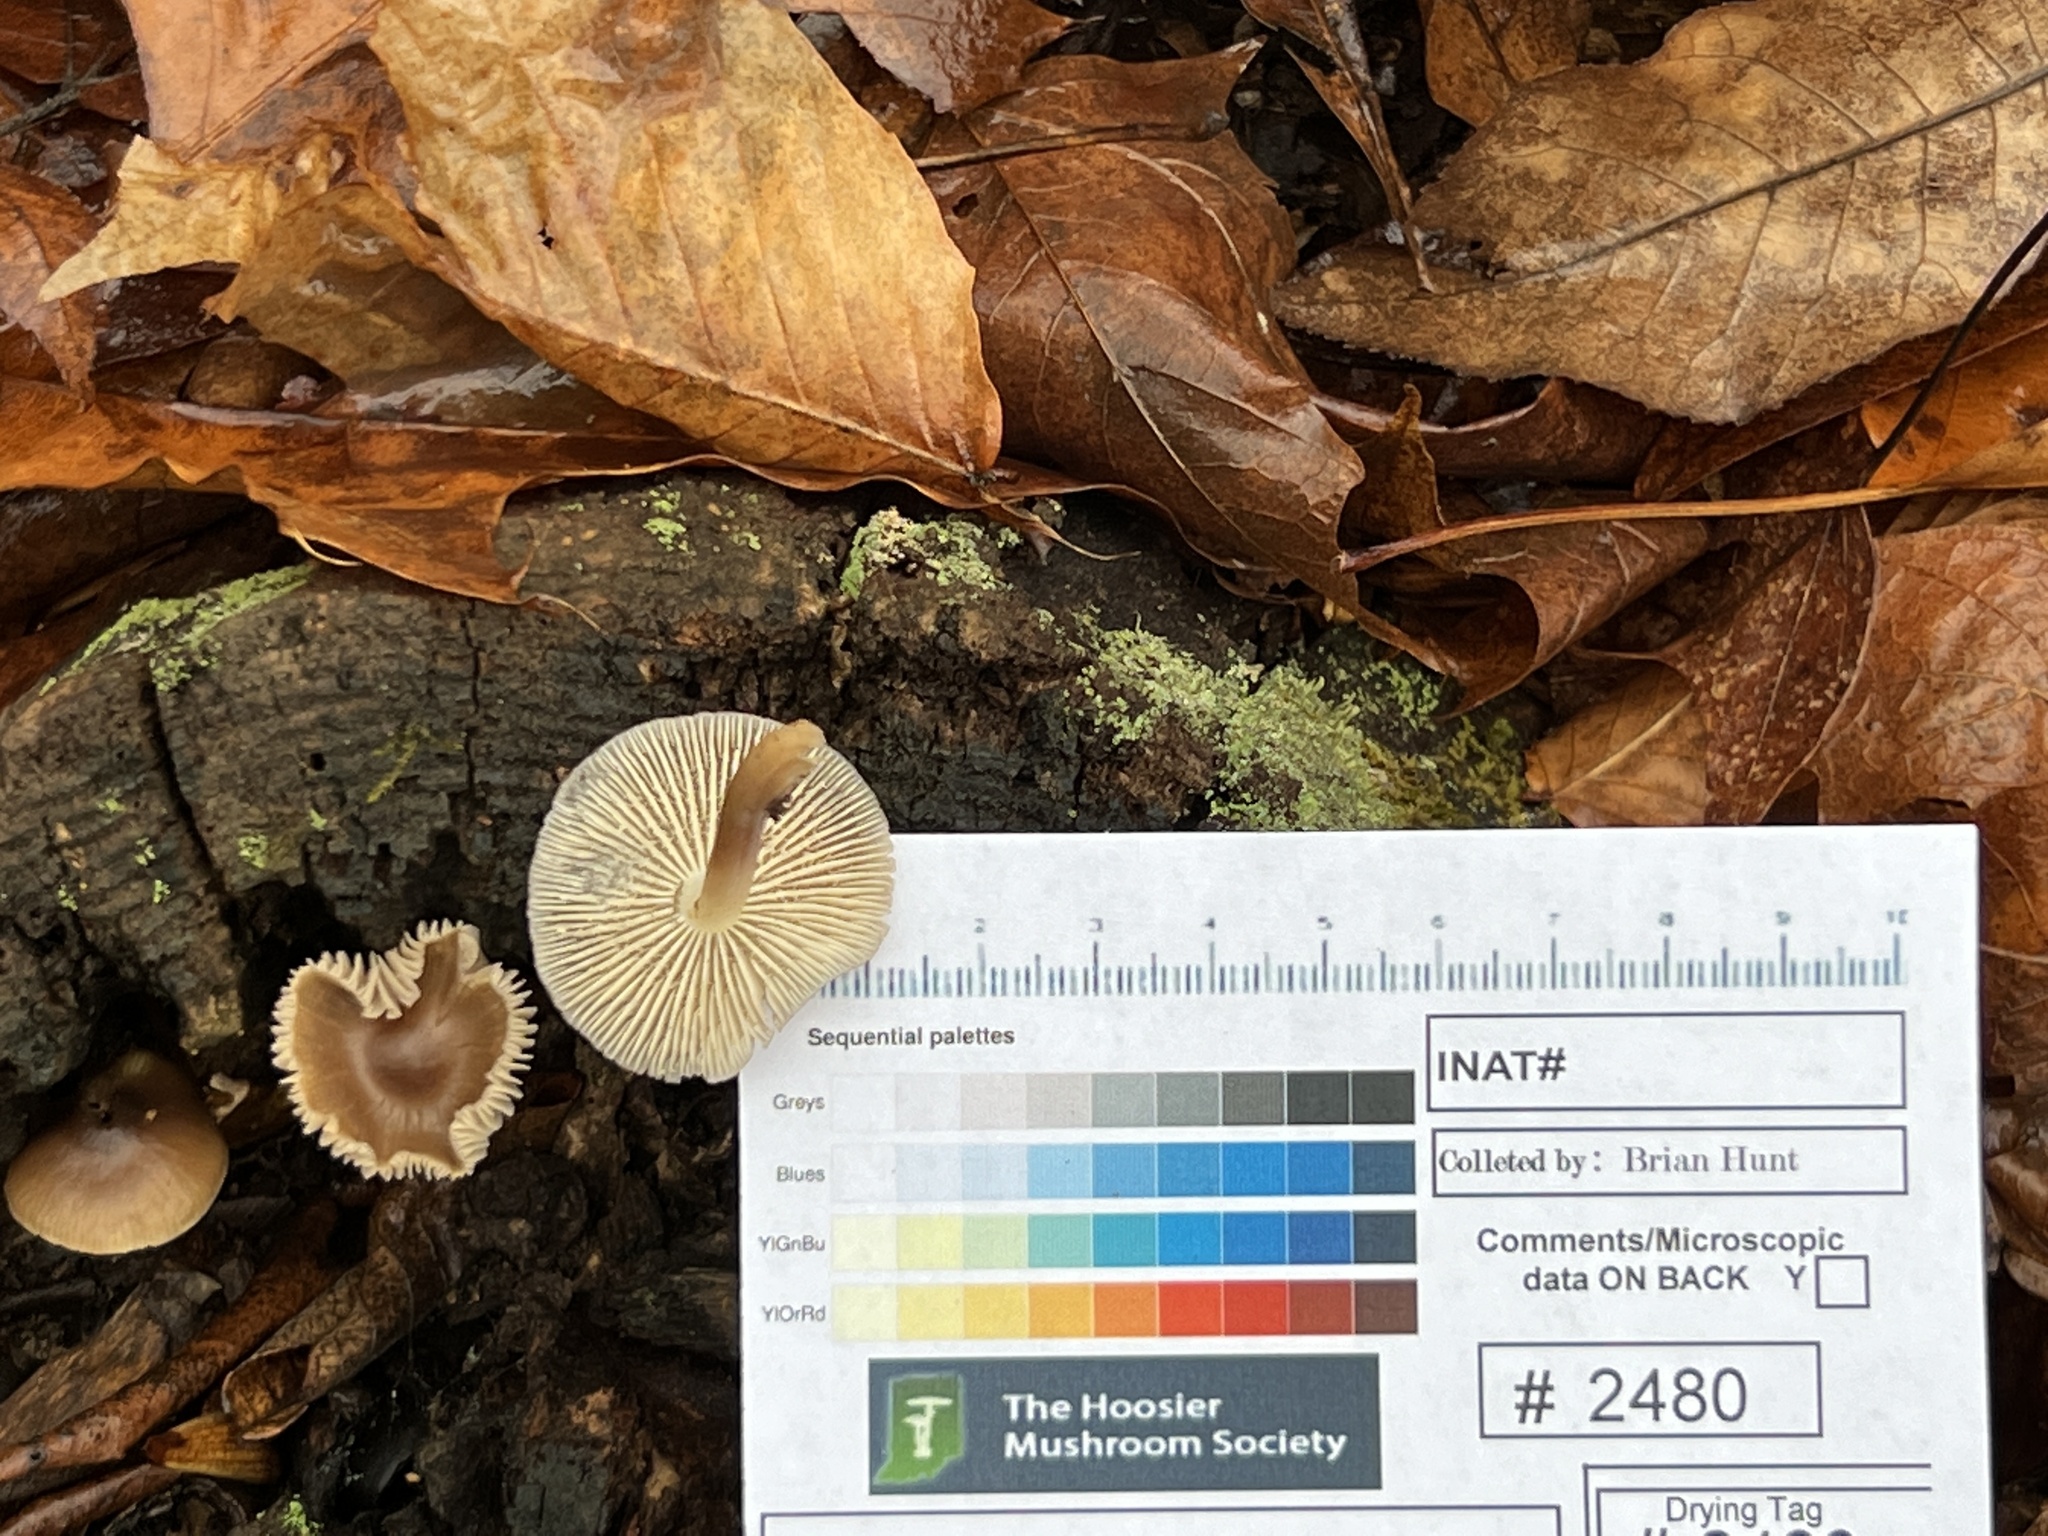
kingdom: Fungi
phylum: Basidiomycota
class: Agaricomycetes
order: Agaricales
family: Mycenaceae
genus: Mycena
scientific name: Mycena galericulata
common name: Bonnet mycena
